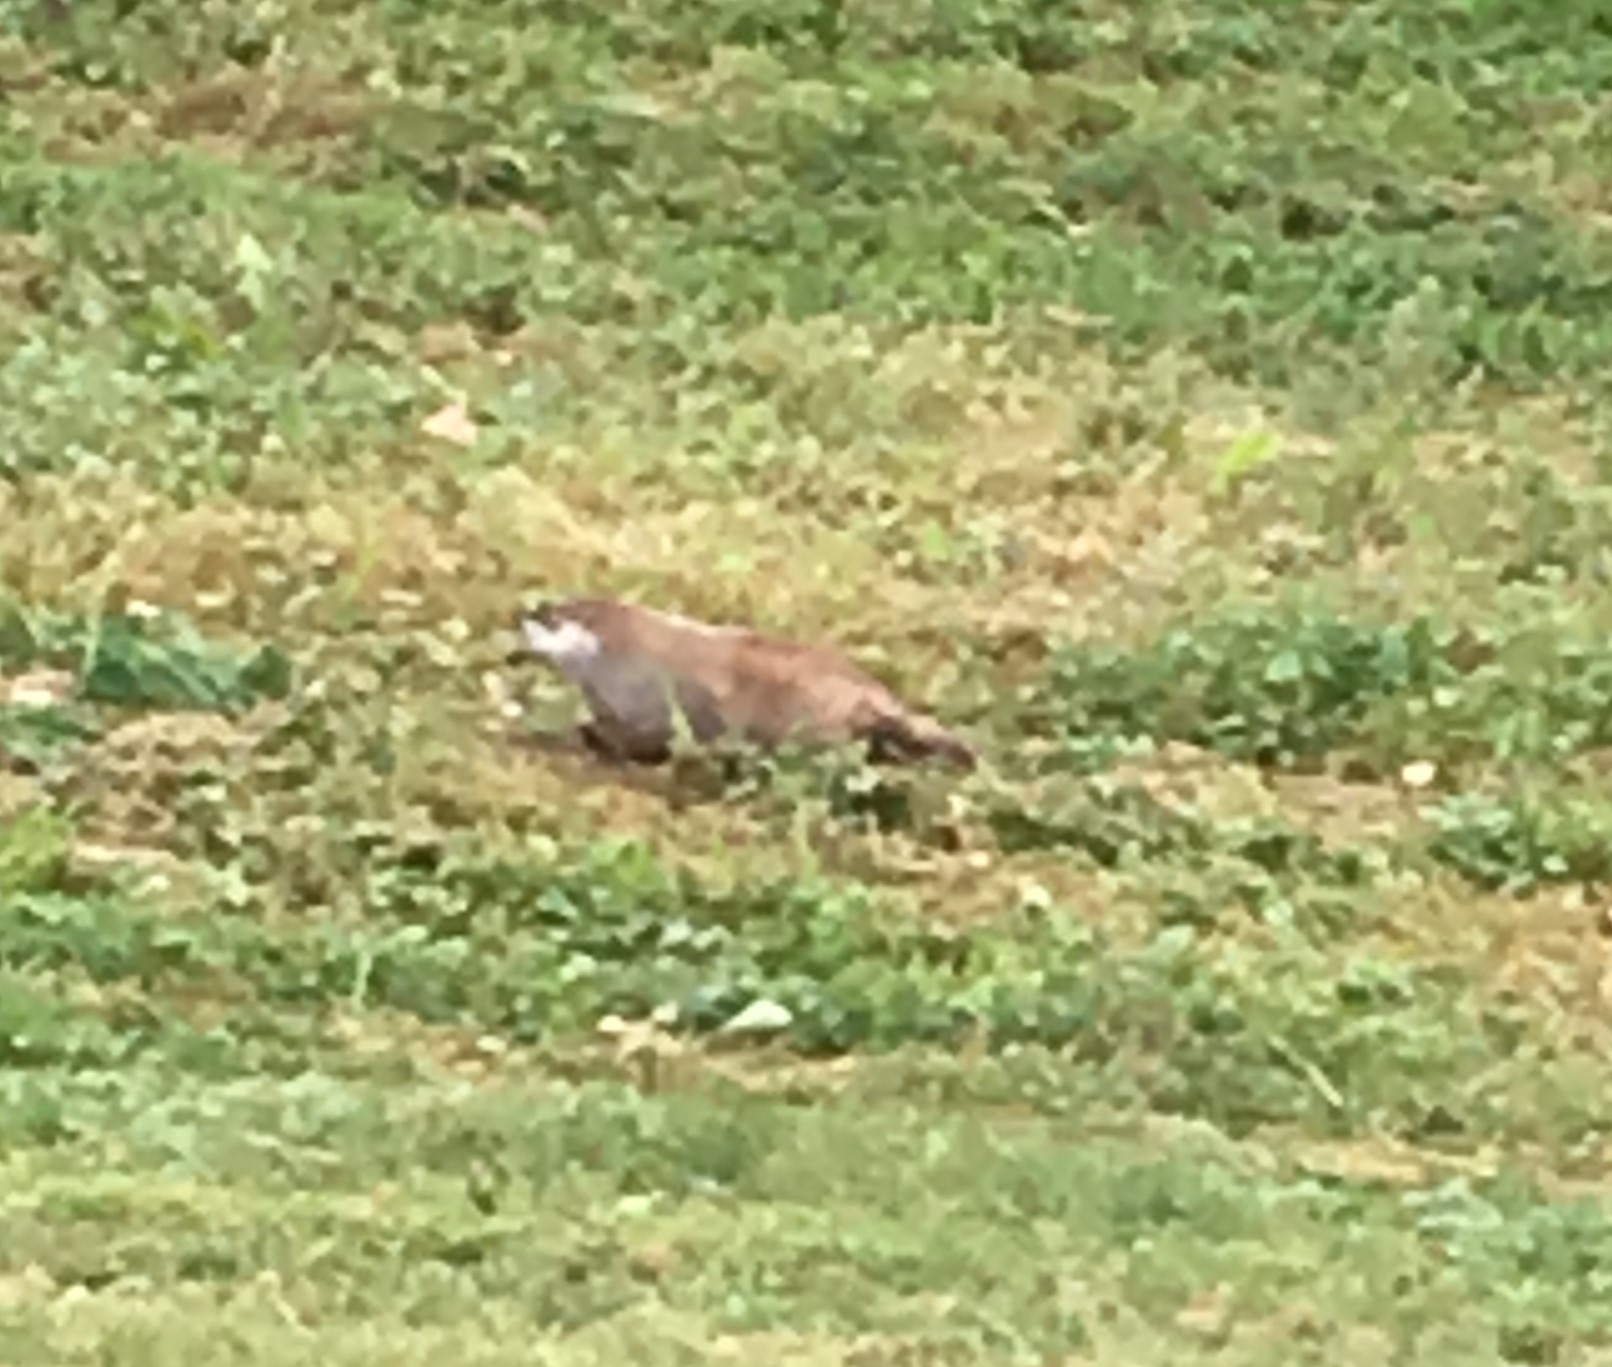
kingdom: Animalia
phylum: Chordata
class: Mammalia
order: Rodentia
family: Sciuridae
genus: Marmota
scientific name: Marmota monax
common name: Groundhog
